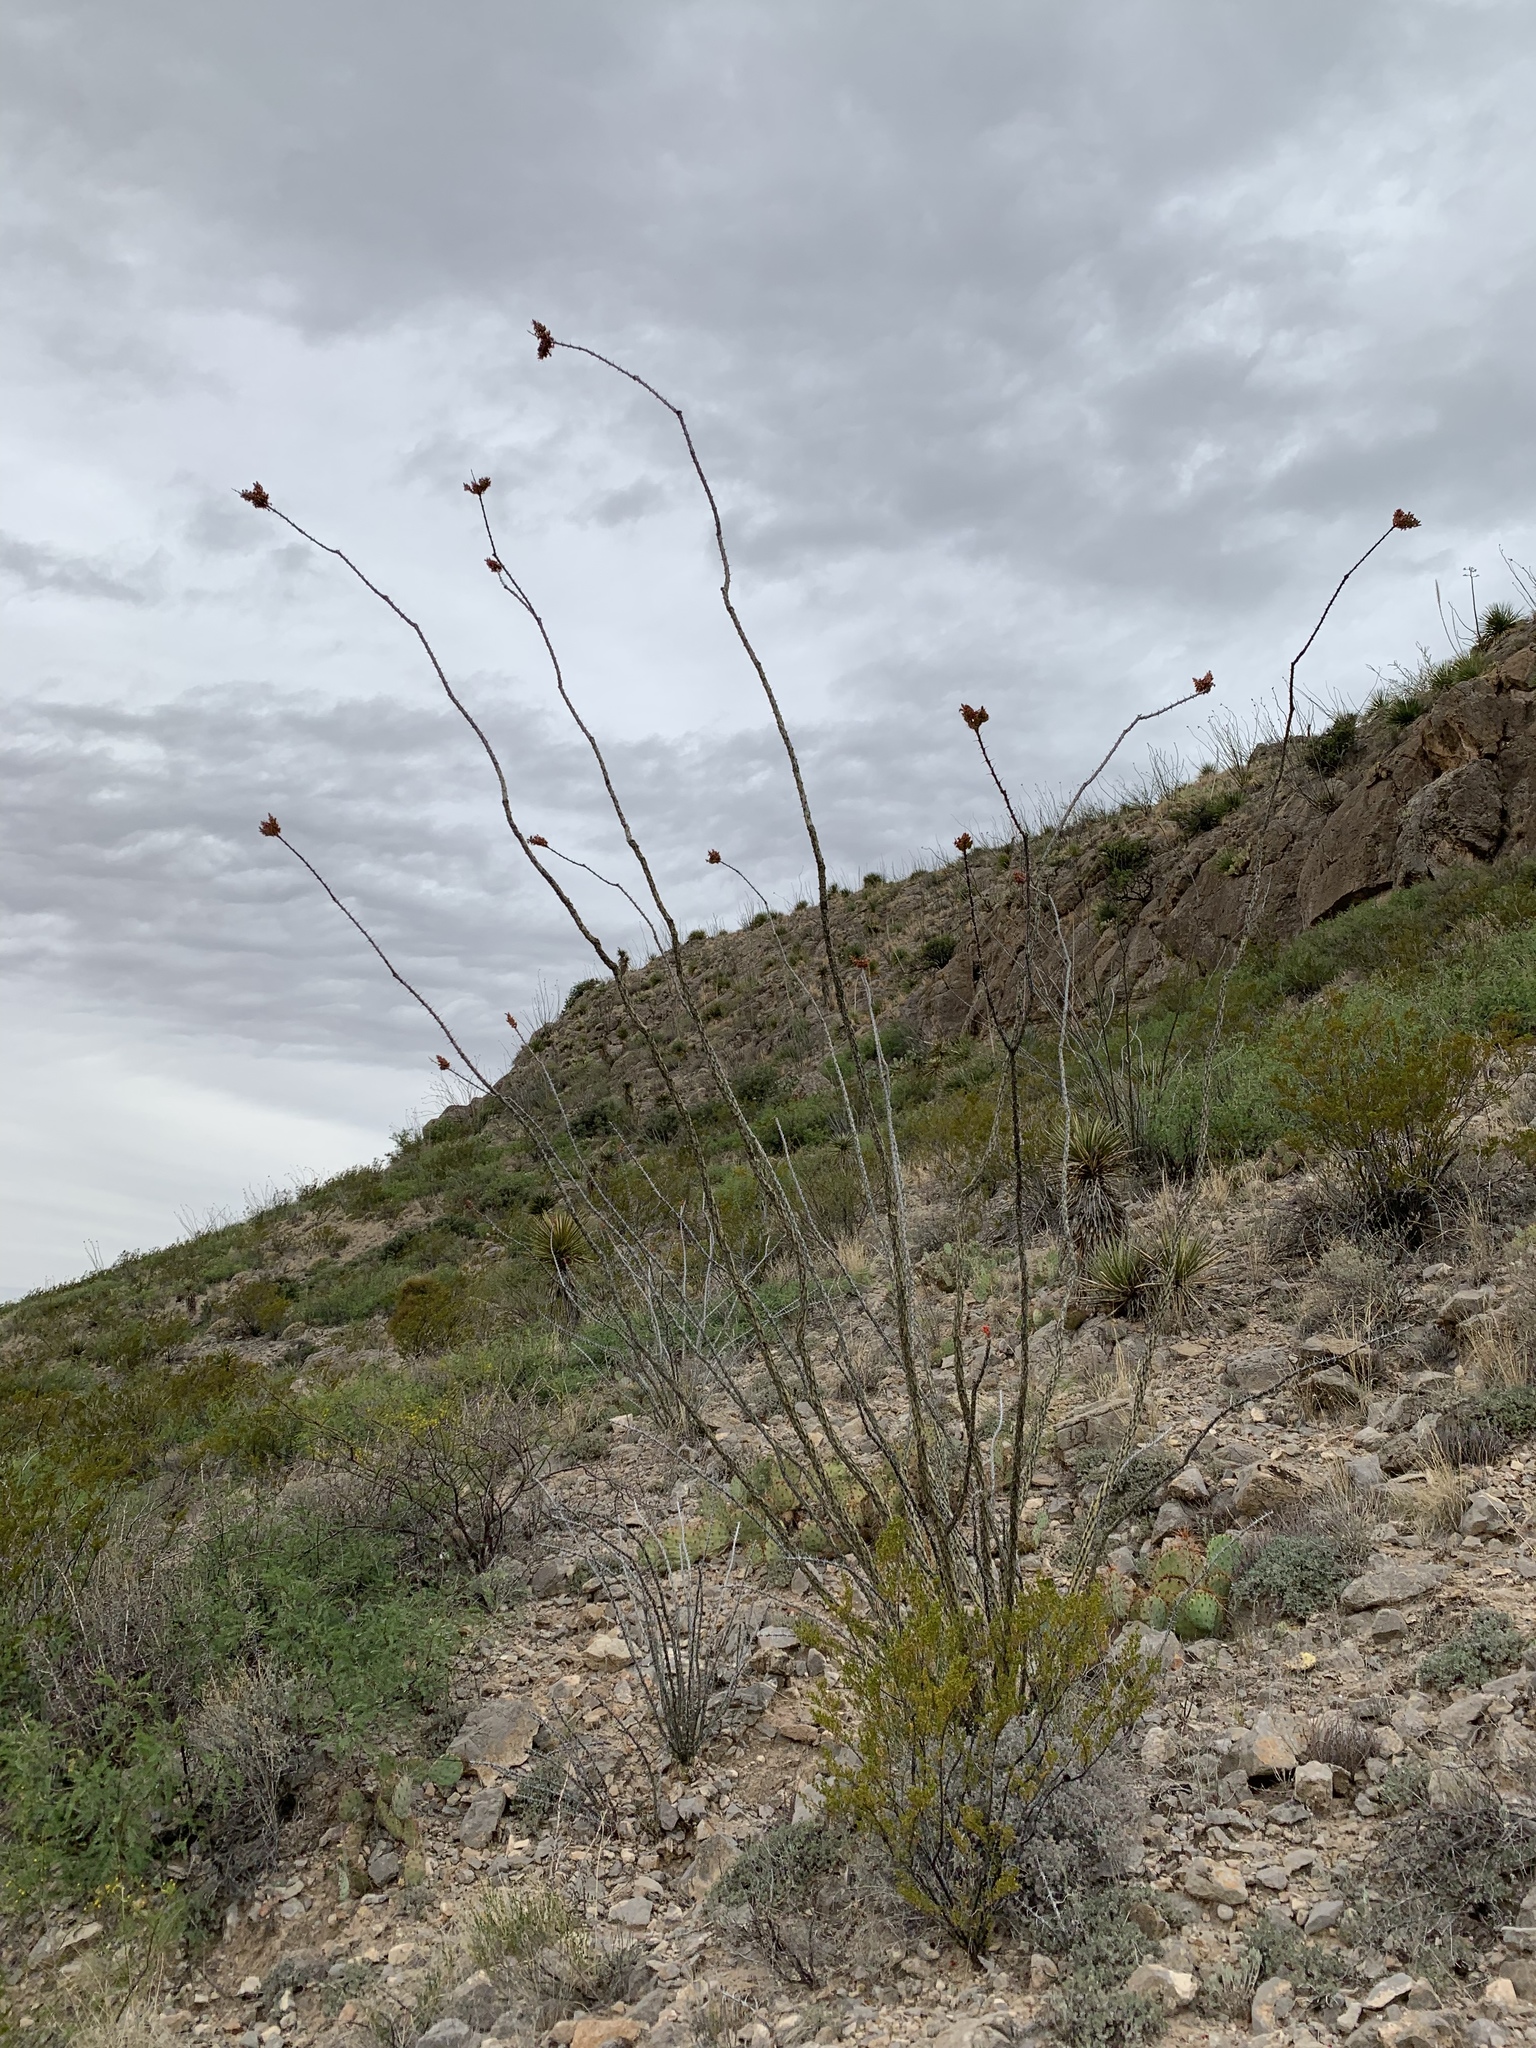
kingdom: Plantae
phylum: Tracheophyta
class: Magnoliopsida
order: Ericales
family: Fouquieriaceae
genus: Fouquieria
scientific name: Fouquieria splendens
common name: Vine-cactus
